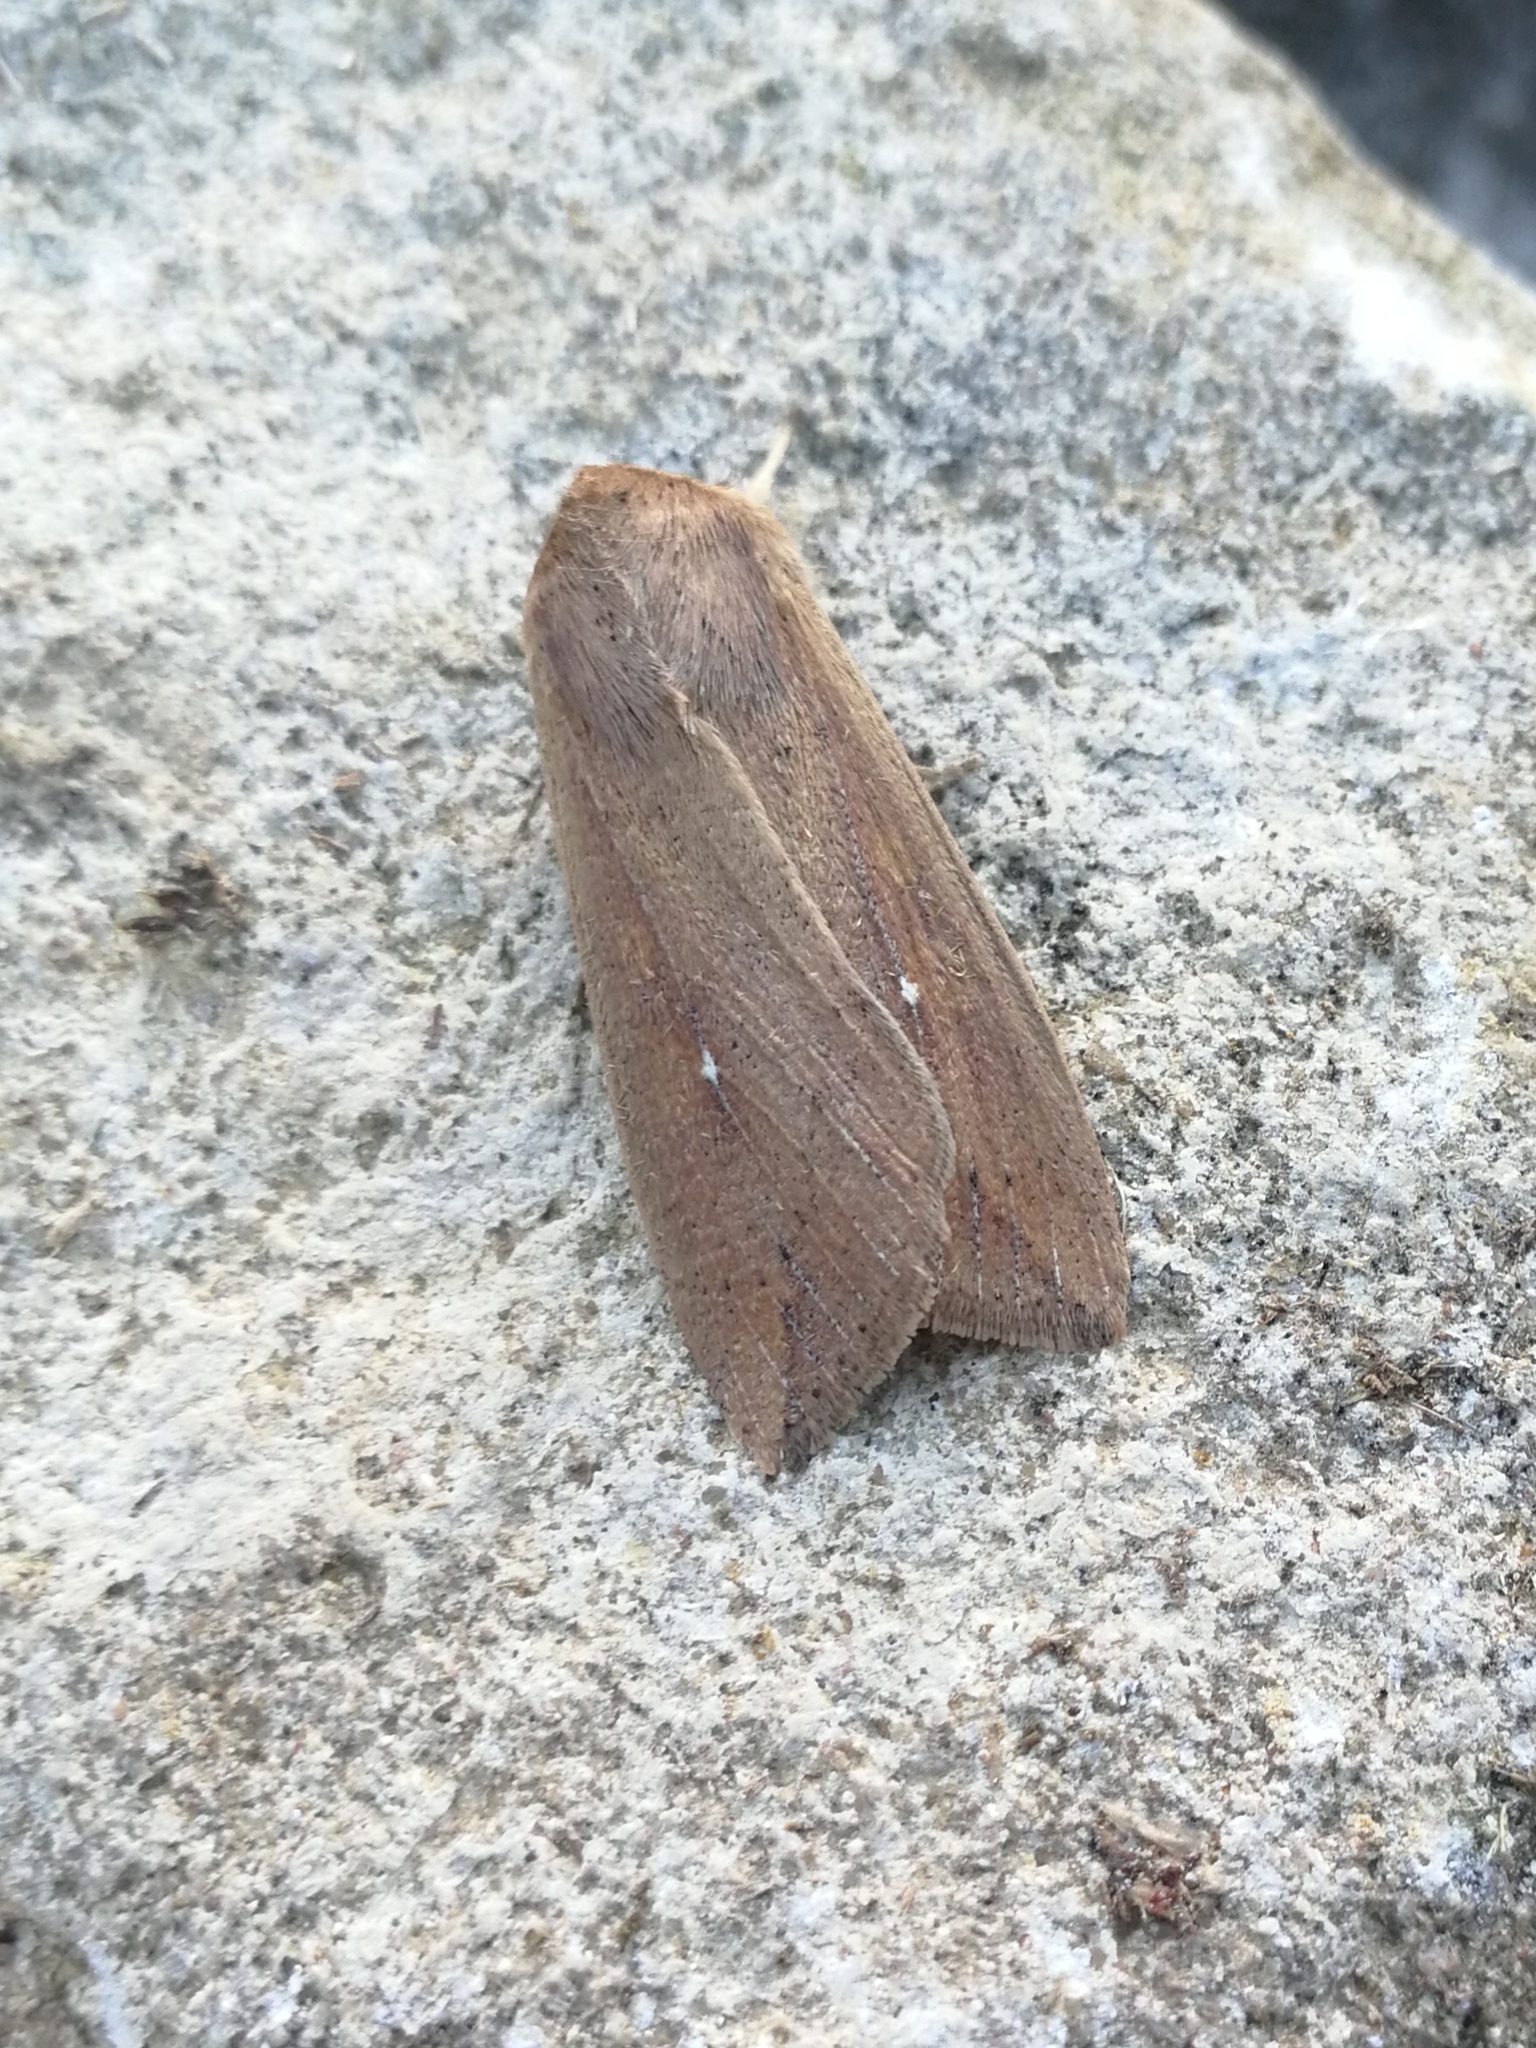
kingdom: Animalia
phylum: Arthropoda
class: Insecta
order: Lepidoptera
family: Noctuidae
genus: Mythimna
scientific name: Mythimna unipuncta
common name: White-speck
